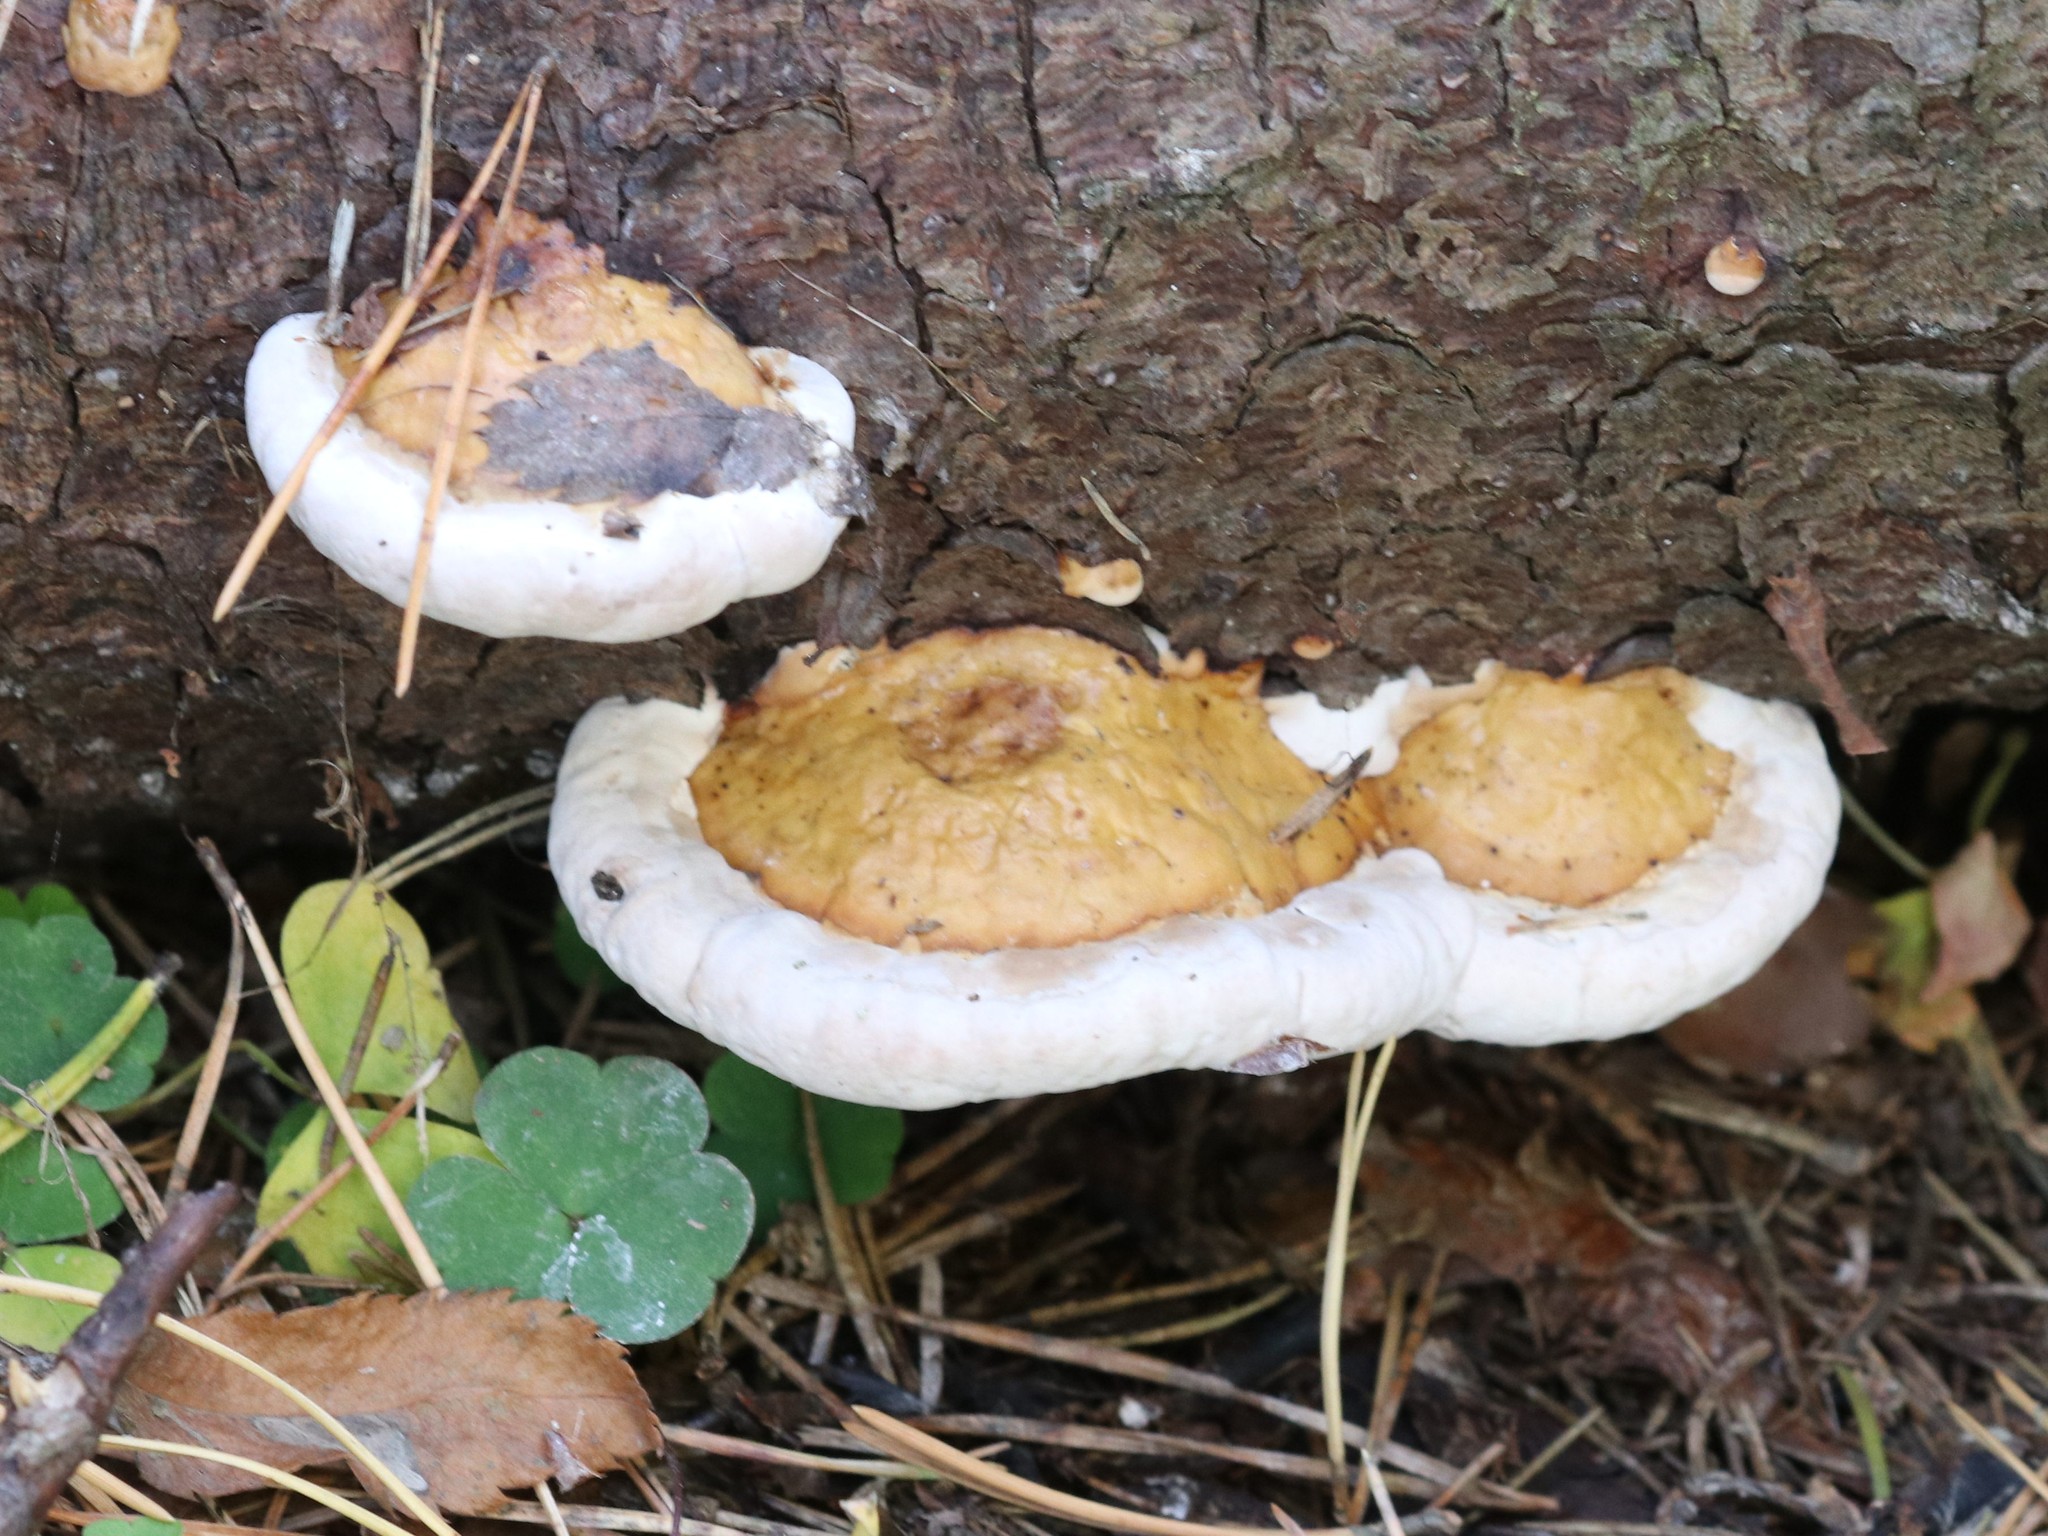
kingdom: Fungi
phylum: Basidiomycota
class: Agaricomycetes
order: Polyporales
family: Fomitopsidaceae
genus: Fomitopsis
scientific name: Fomitopsis pinicola
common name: Red-belted bracket
